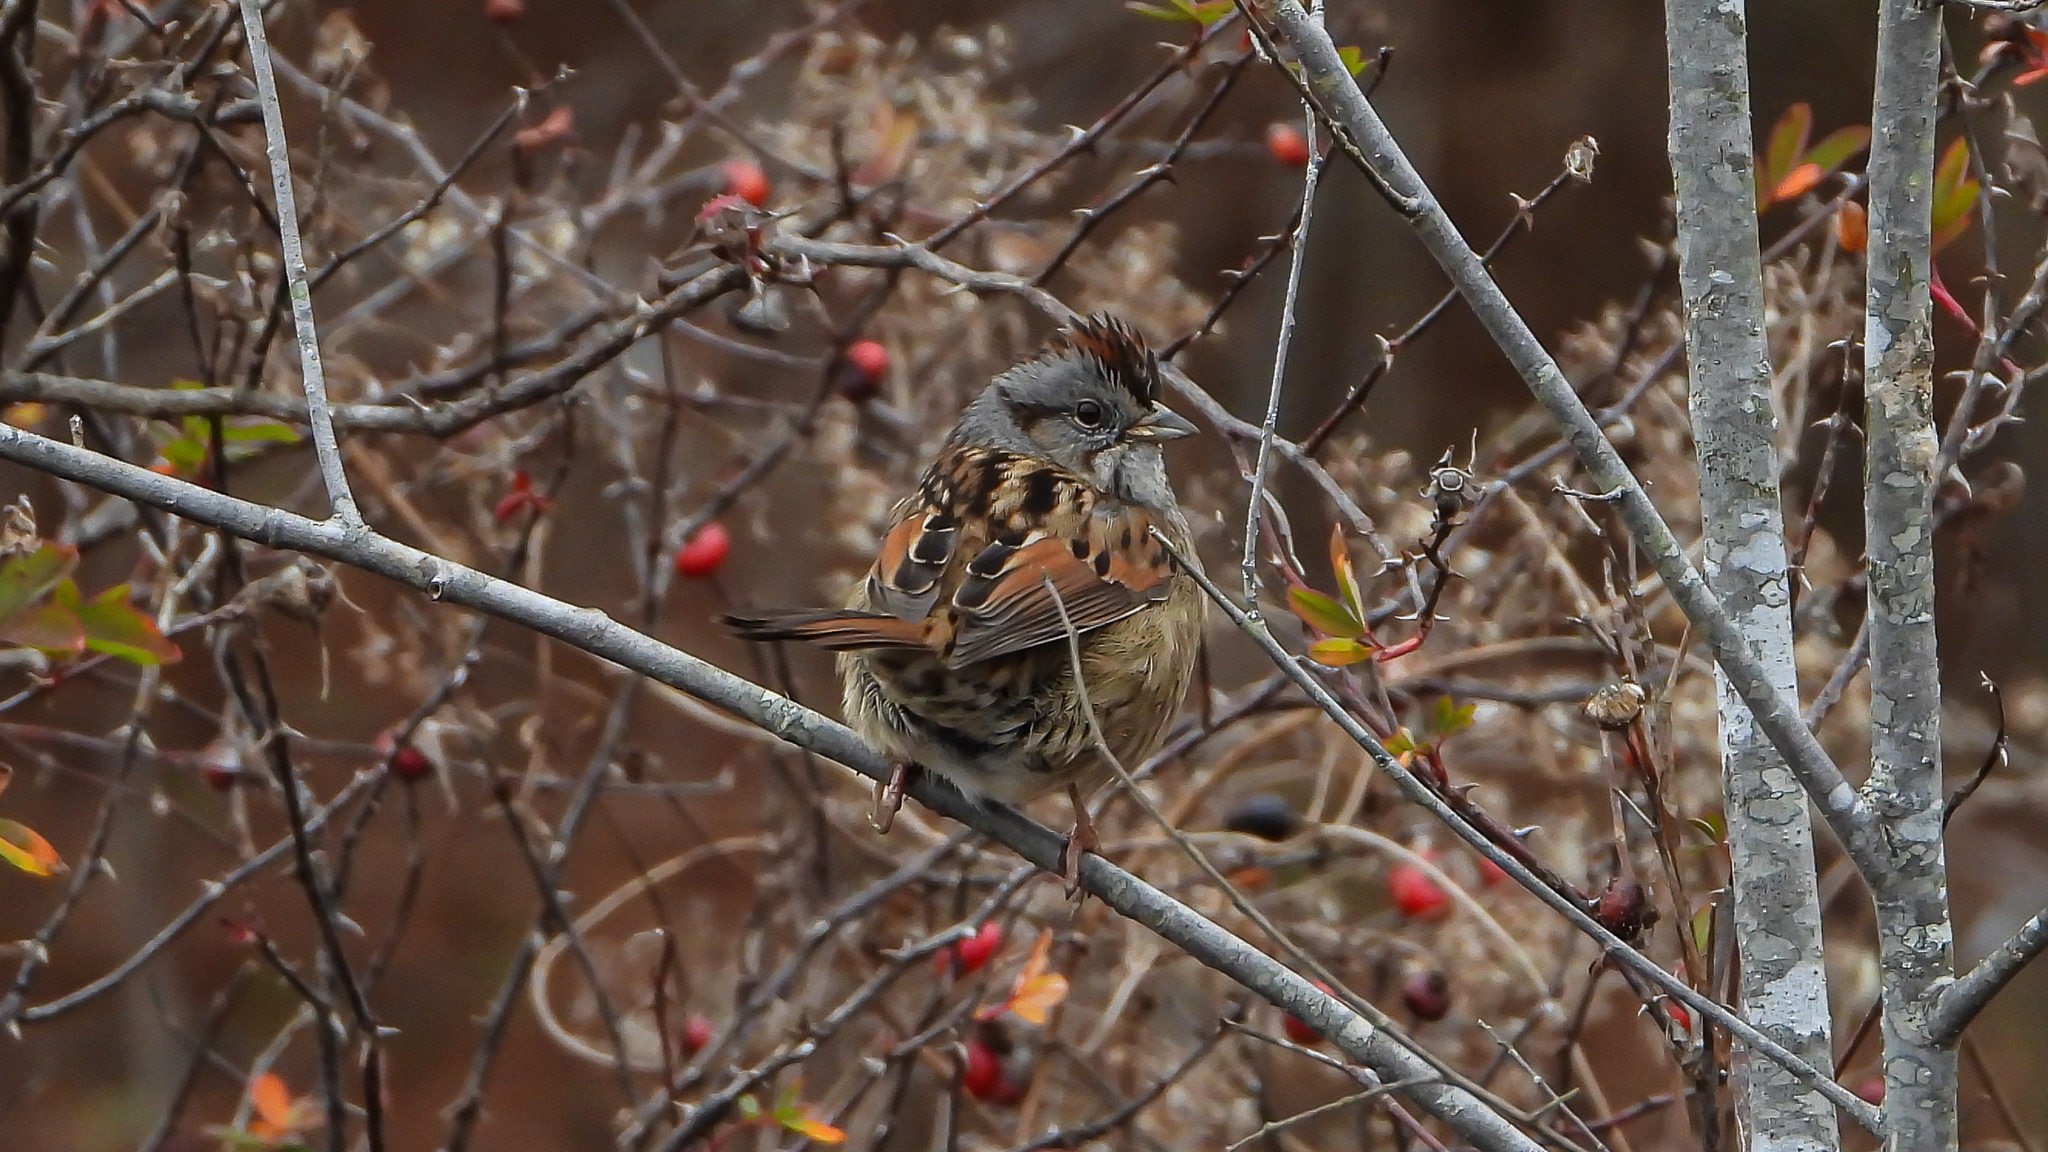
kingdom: Animalia
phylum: Chordata
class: Aves
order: Passeriformes
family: Passerellidae
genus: Melospiza
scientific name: Melospiza georgiana
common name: Swamp sparrow
